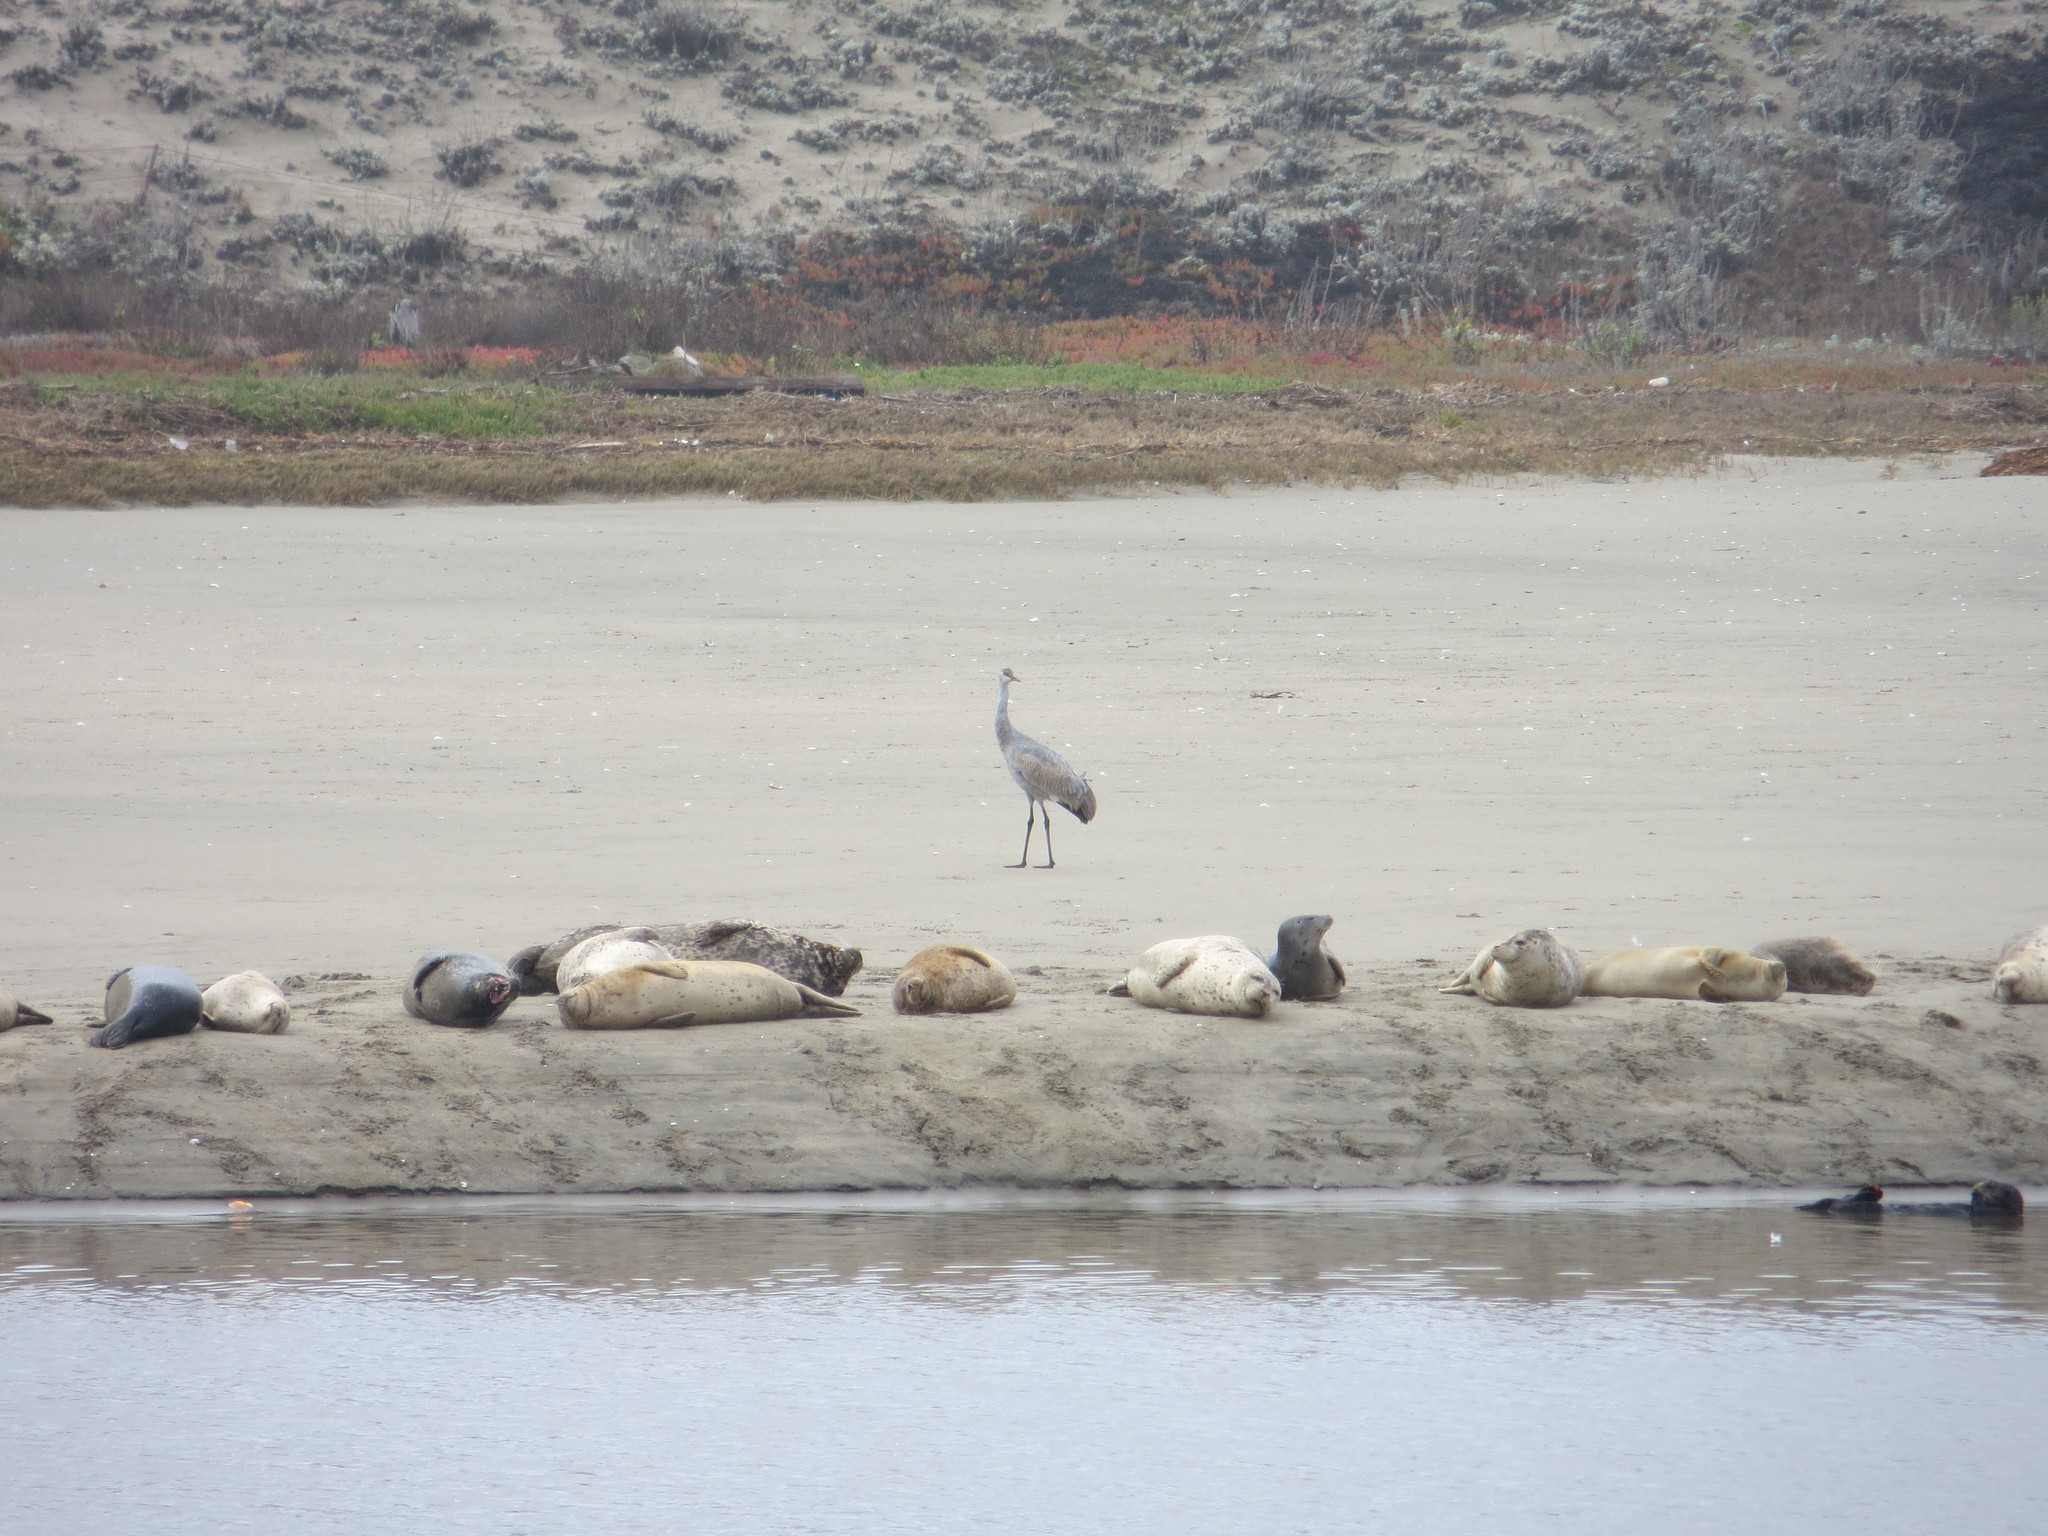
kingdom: Animalia
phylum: Chordata
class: Aves
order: Gruiformes
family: Gruidae
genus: Grus
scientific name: Grus canadensis
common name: Sandhill crane
